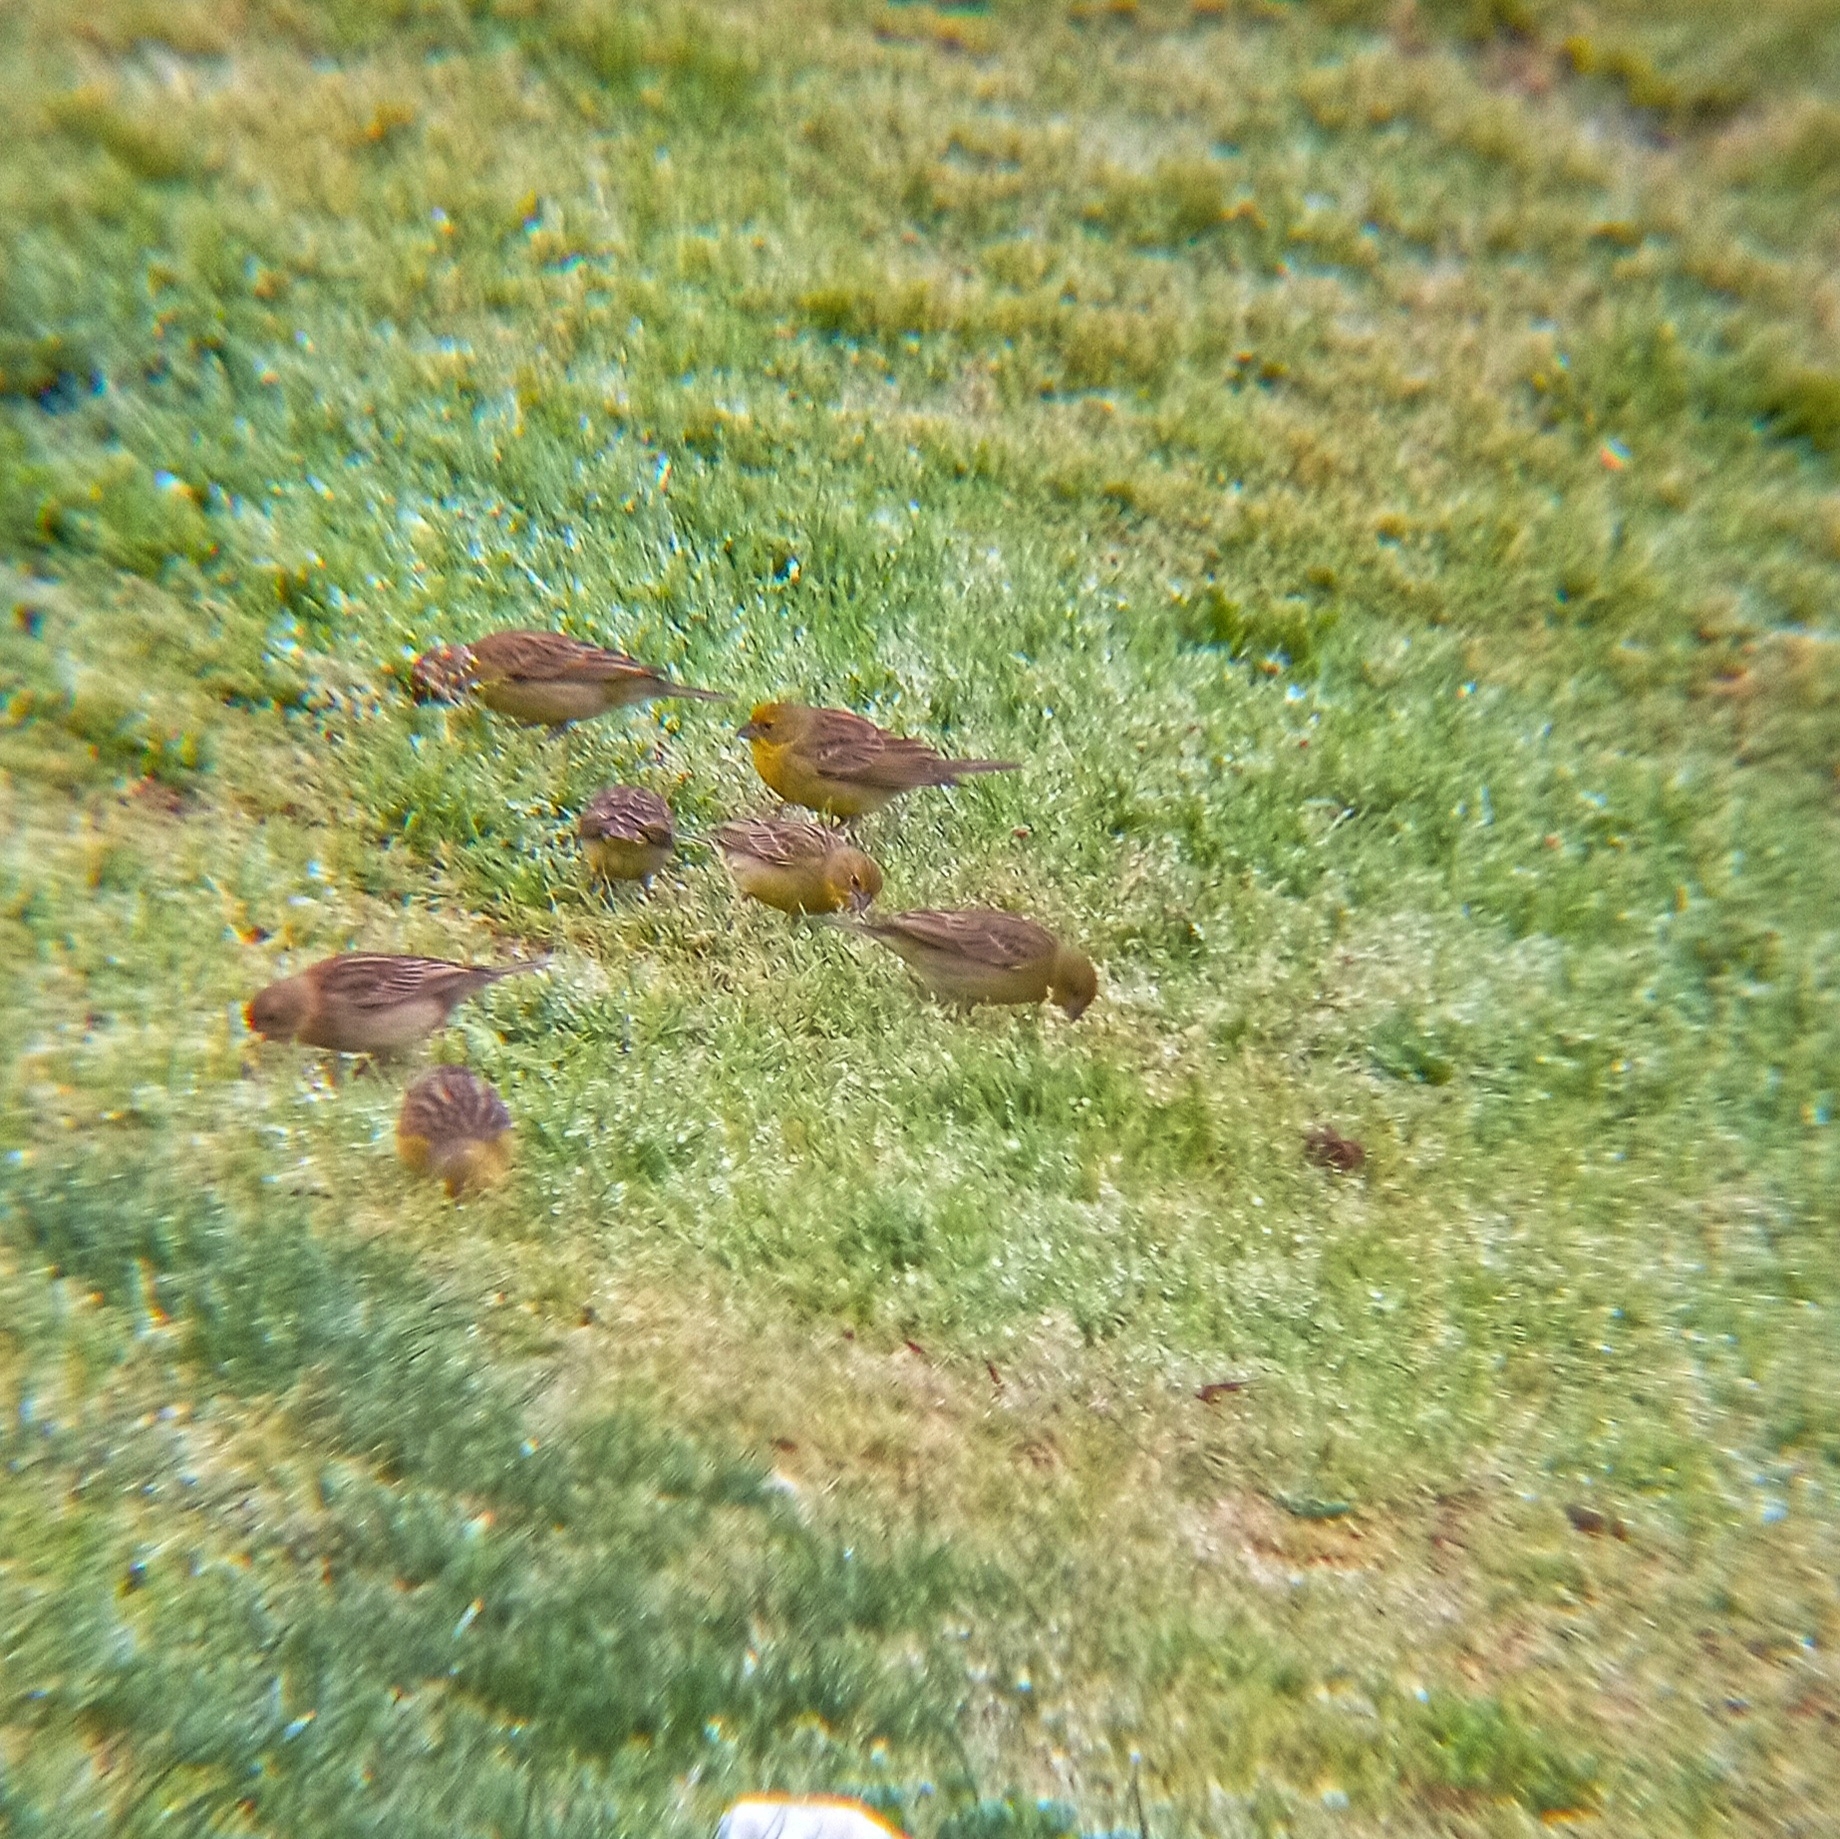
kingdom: Animalia
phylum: Chordata
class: Aves
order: Passeriformes
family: Thraupidae
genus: Sicalis
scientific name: Sicalis luteola
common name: Grassland yellow-finch
